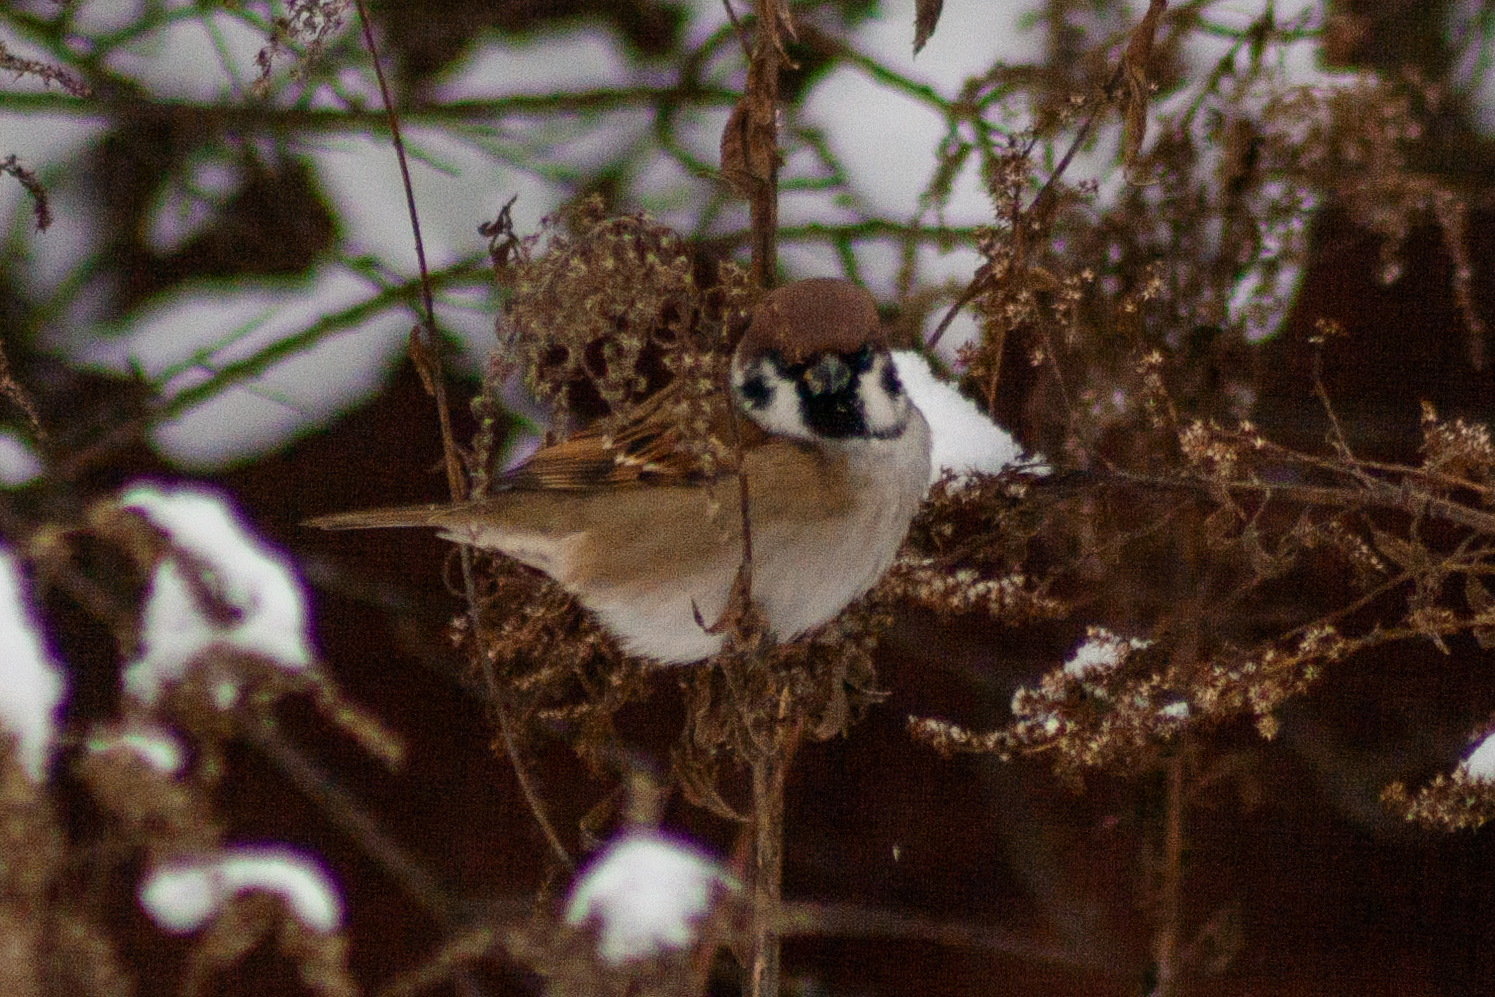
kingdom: Animalia
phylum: Chordata
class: Aves
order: Passeriformes
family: Passeridae
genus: Passer
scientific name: Passer montanus
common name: Eurasian tree sparrow
